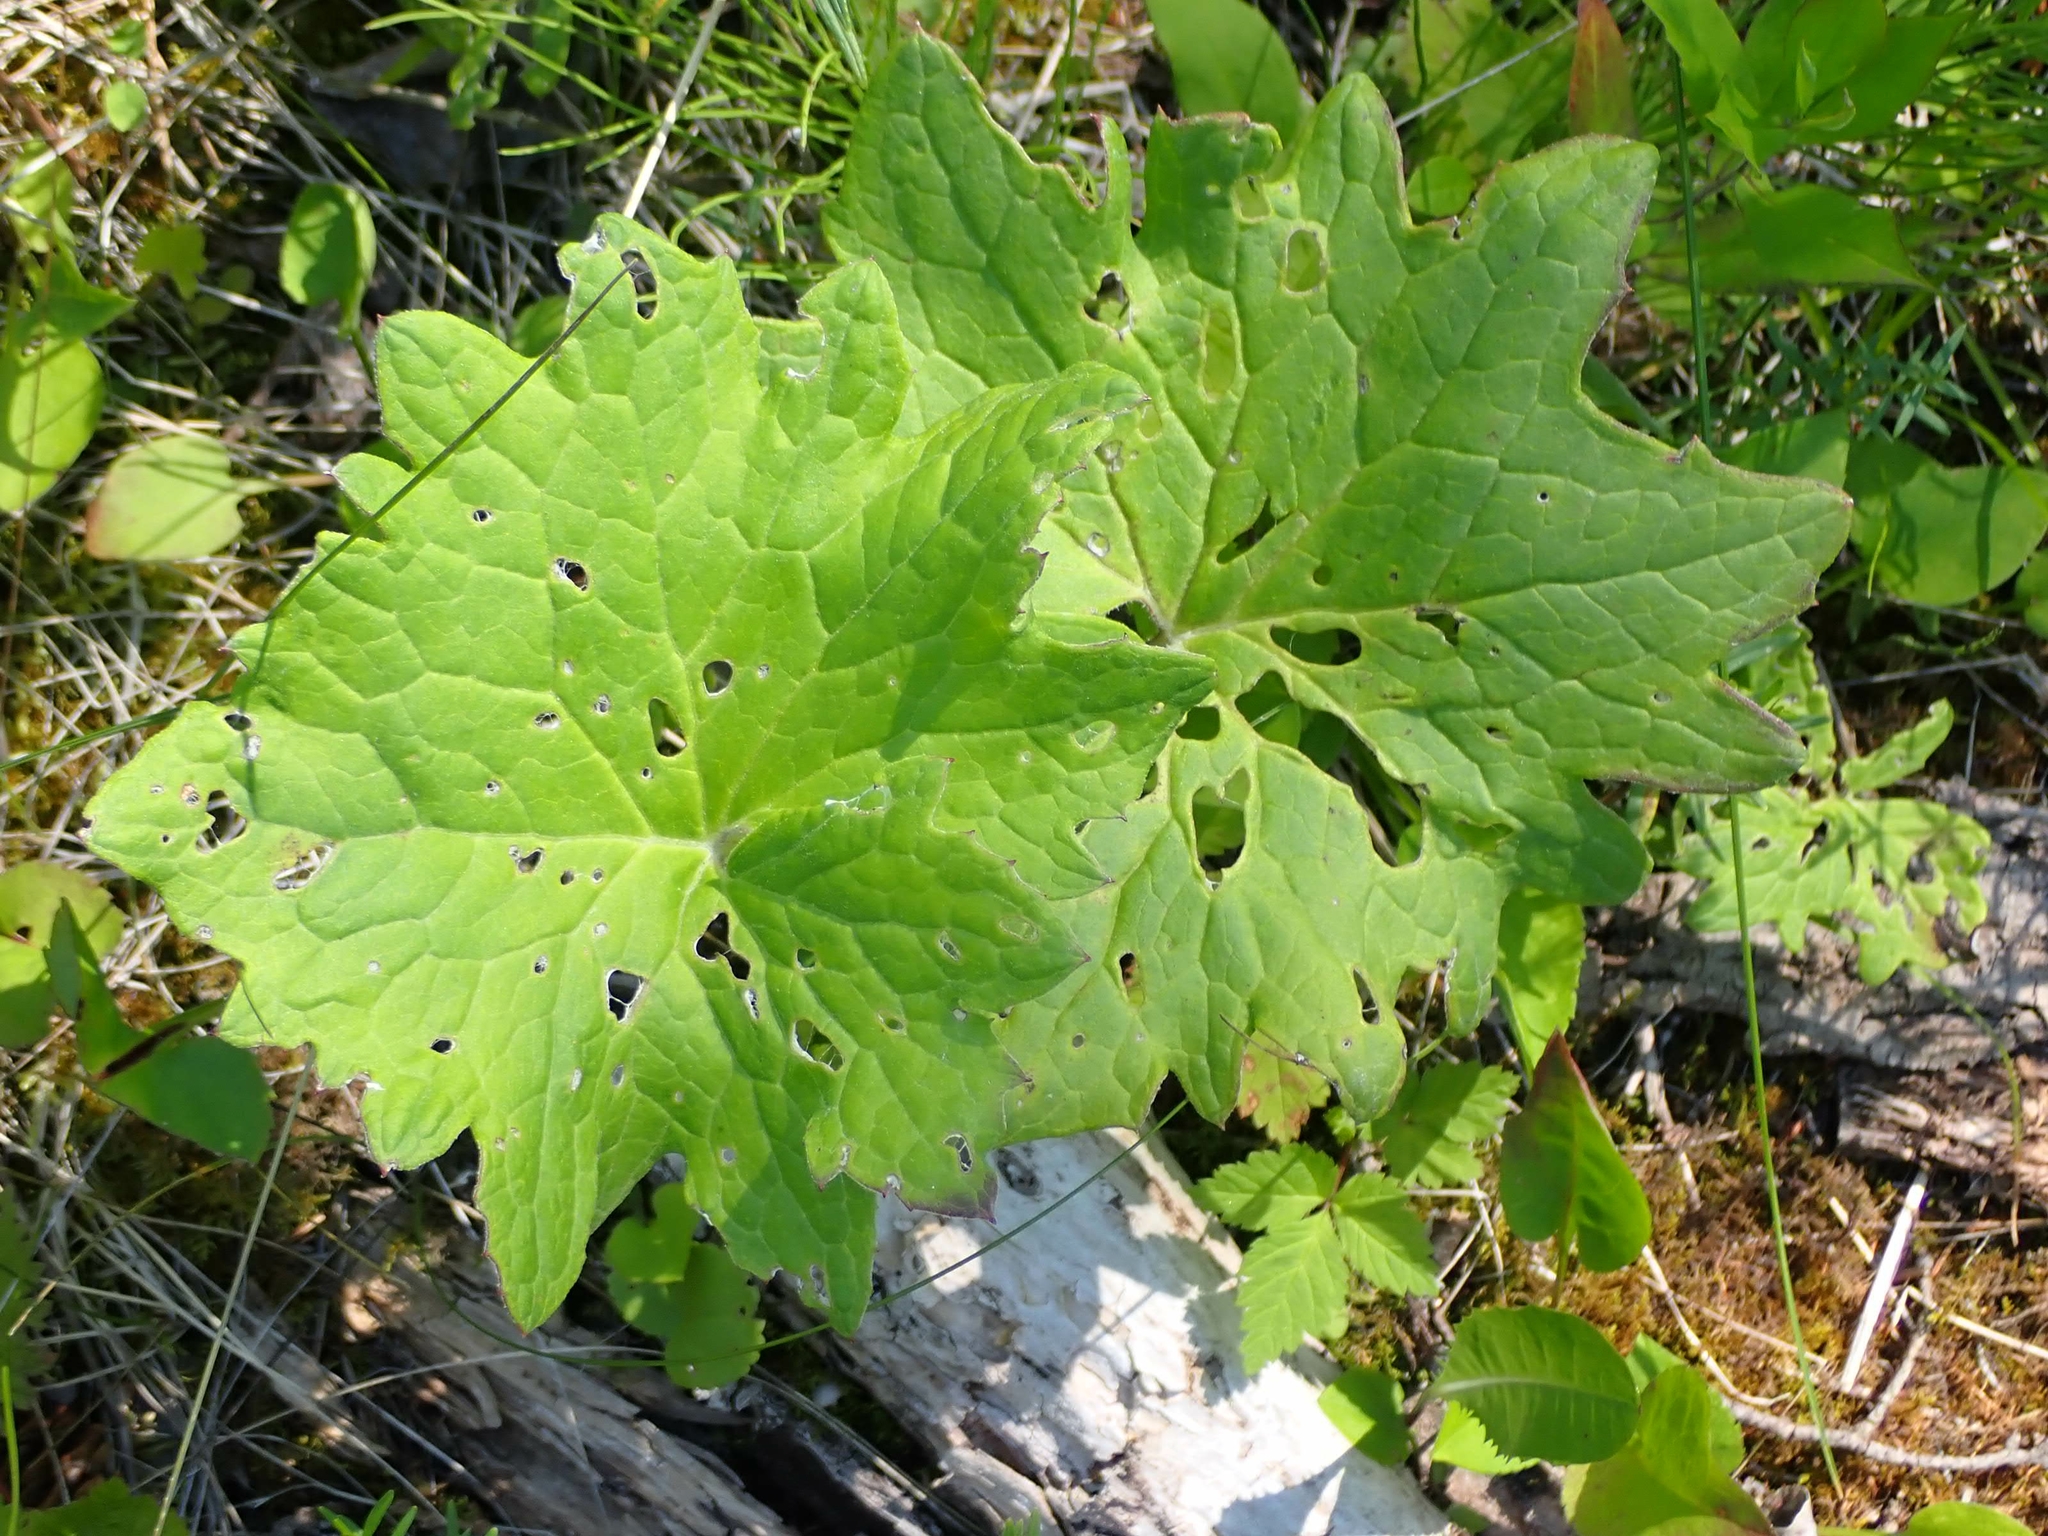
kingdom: Plantae
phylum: Tracheophyta
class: Magnoliopsida
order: Asterales
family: Asteraceae
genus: Petasites
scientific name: Petasites frigidus
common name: Arctic butterbur
